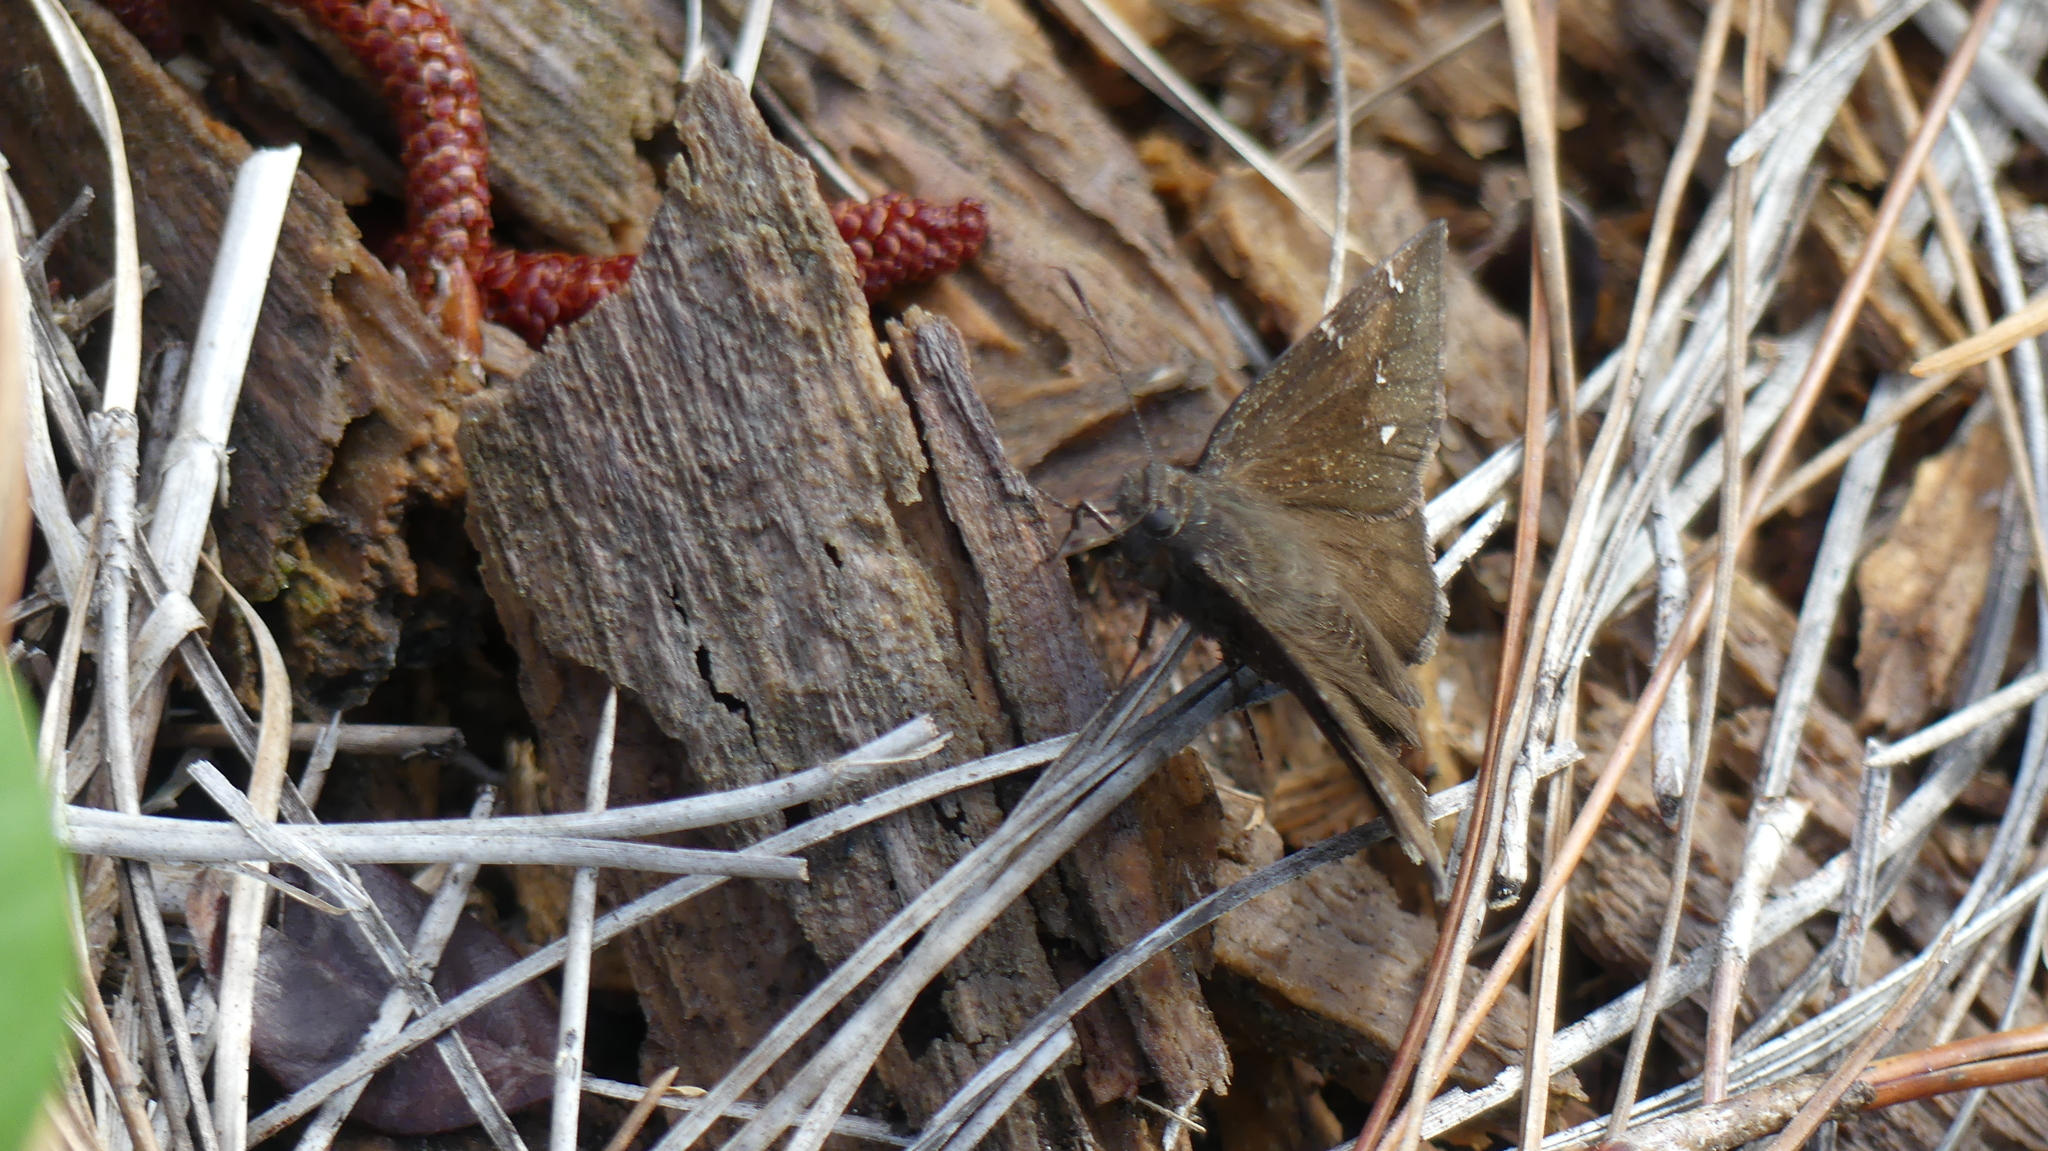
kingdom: Animalia
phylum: Arthropoda
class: Insecta
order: Lepidoptera
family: Hesperiidae
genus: Thorybes
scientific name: Thorybes pylades
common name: Northern cloudywing
